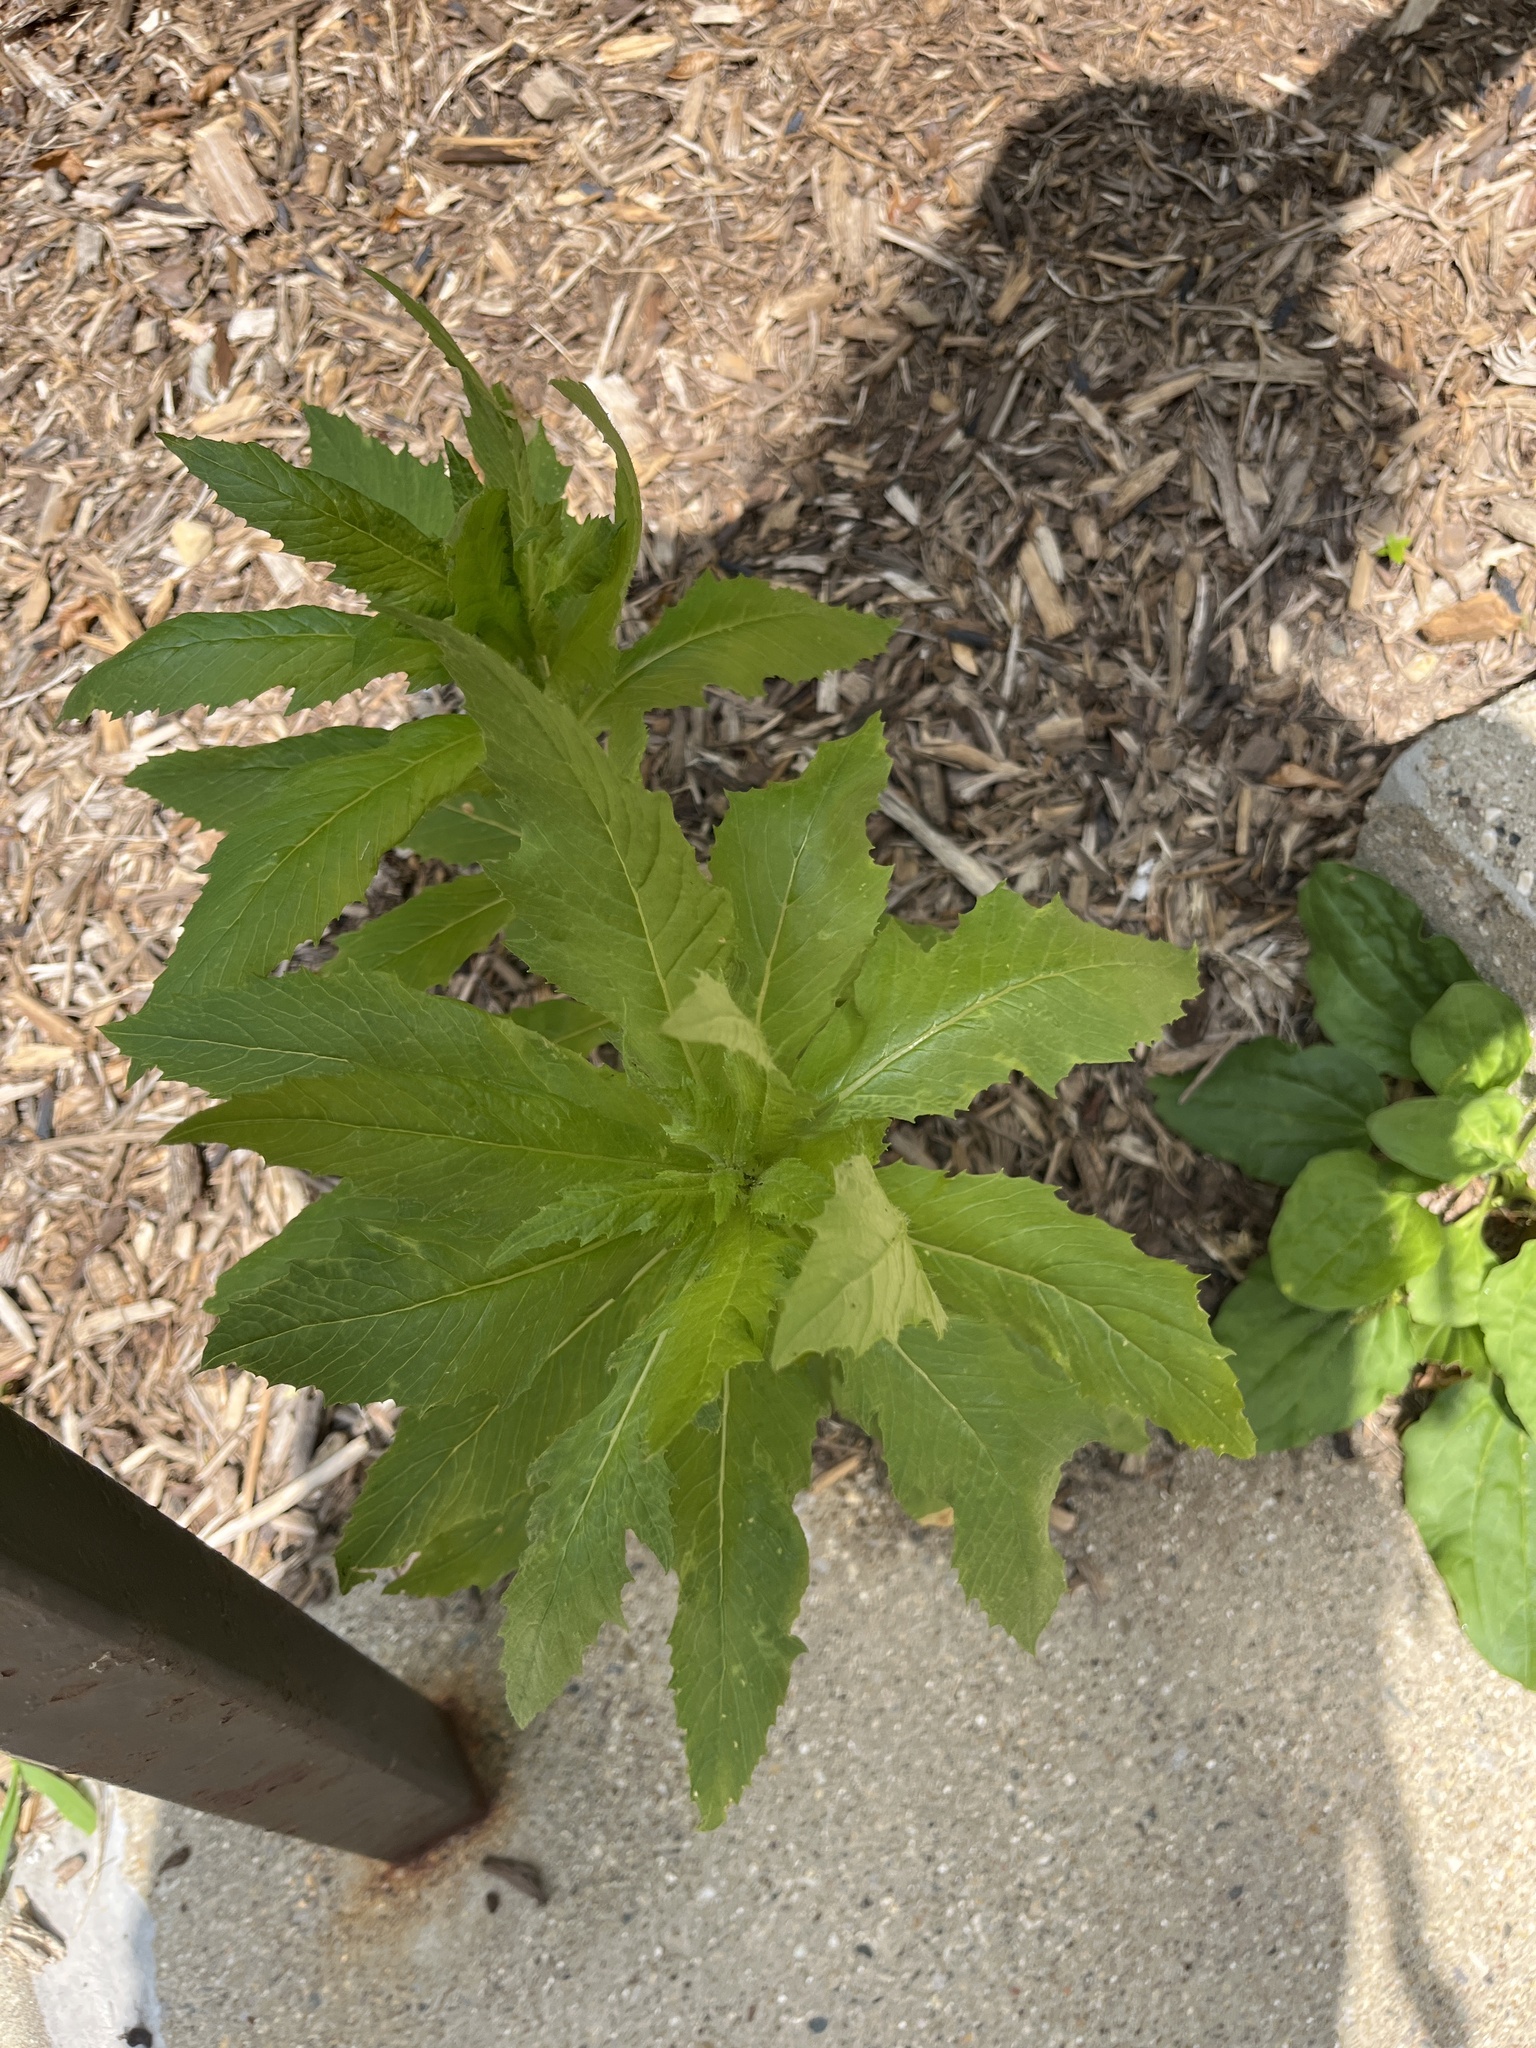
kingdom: Plantae
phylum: Tracheophyta
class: Magnoliopsida
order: Asterales
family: Asteraceae
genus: Erechtites
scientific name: Erechtites hieraciifolius
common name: American burnweed
